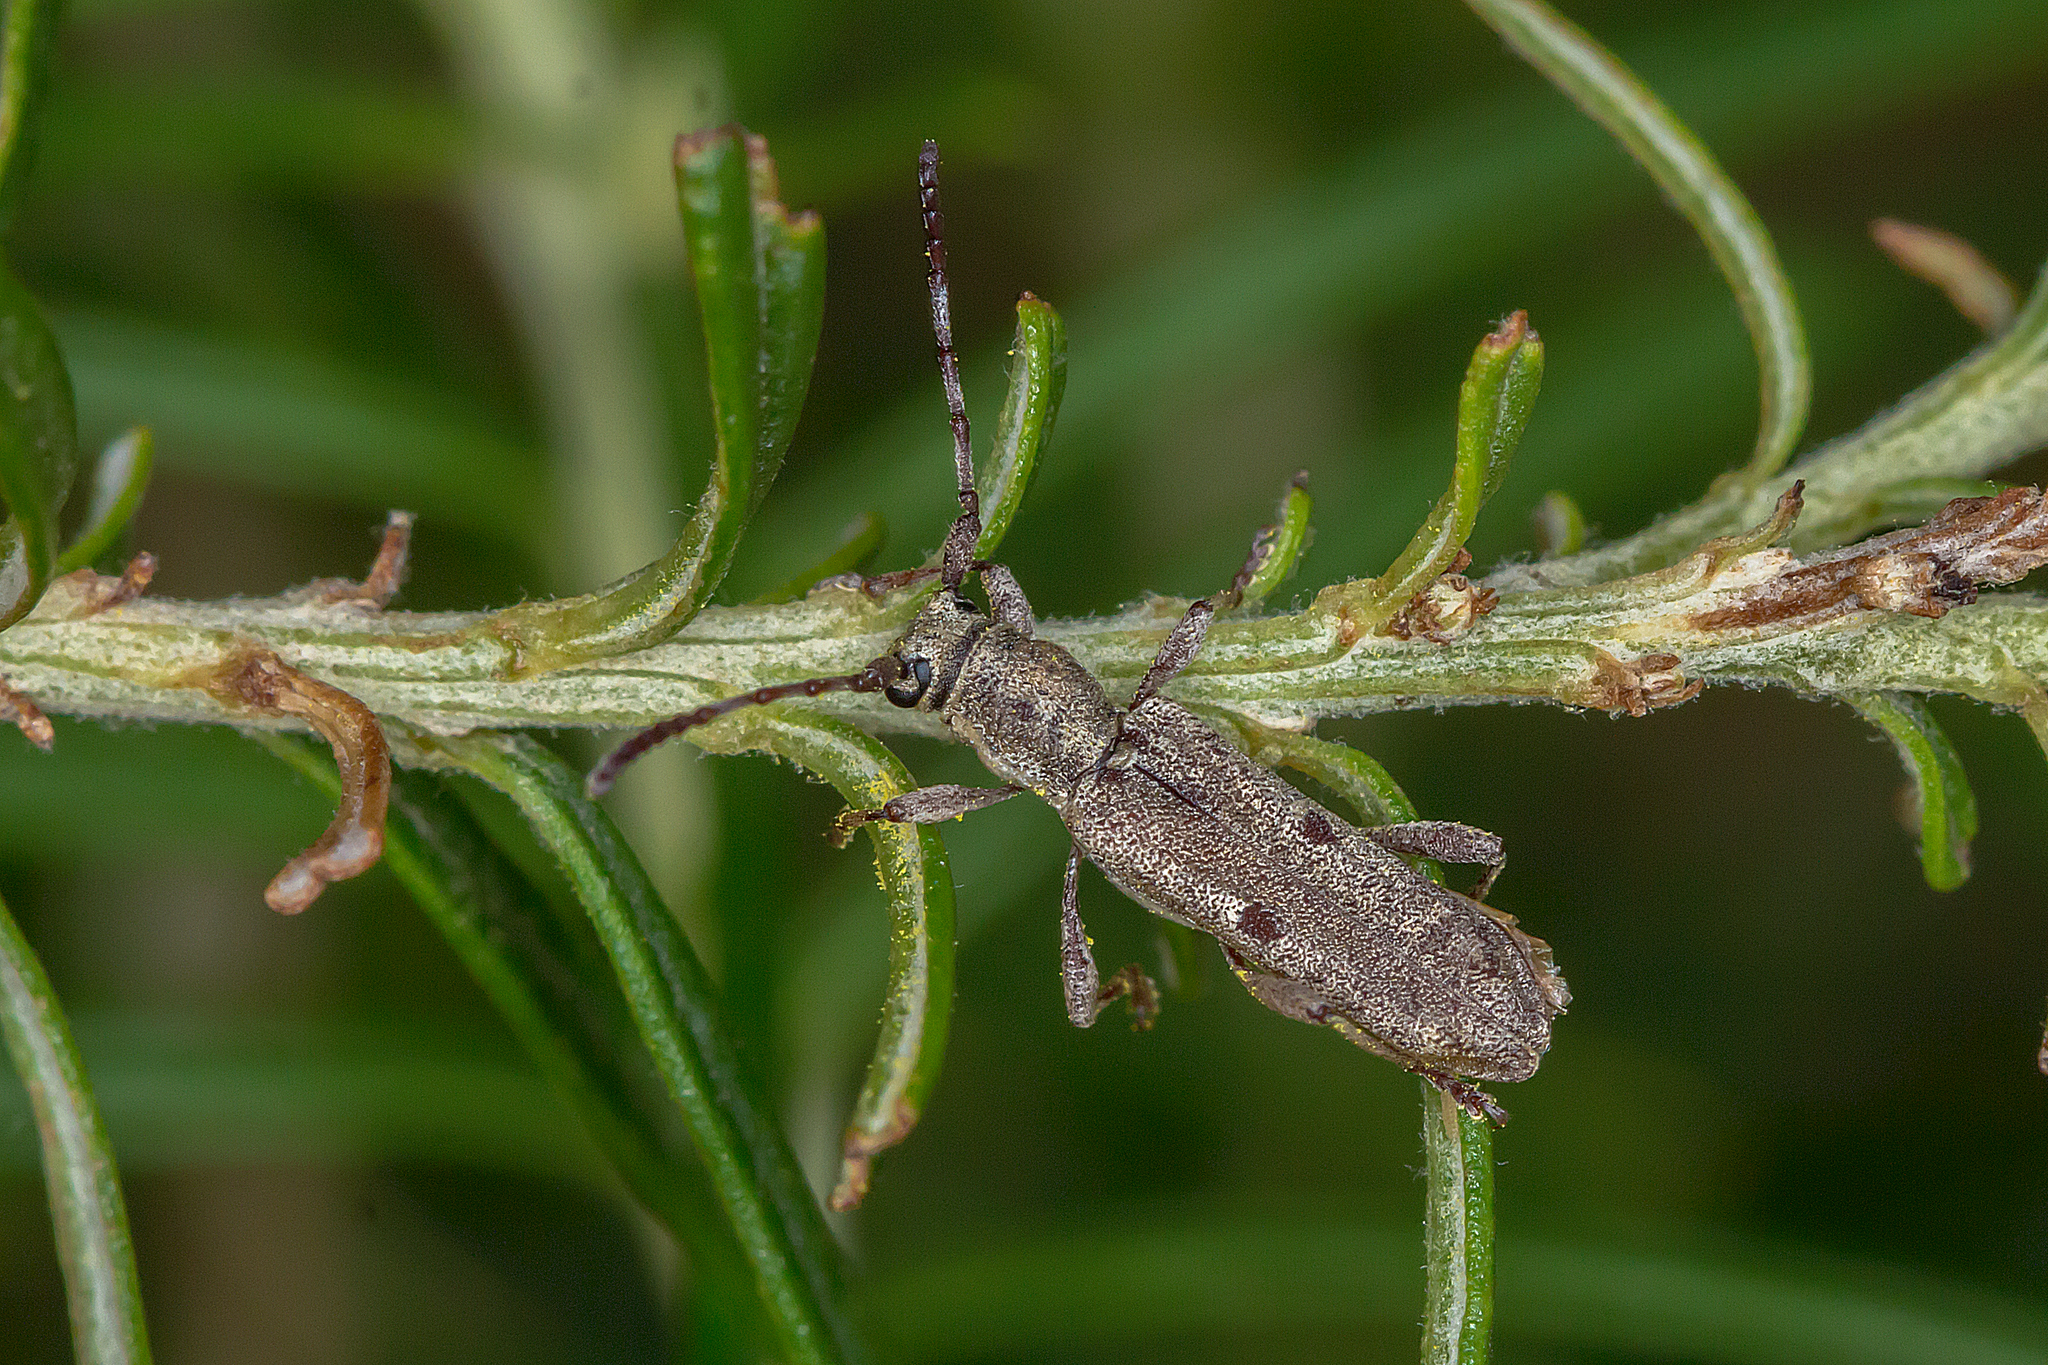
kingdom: Animalia
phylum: Arthropoda
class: Insecta
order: Coleoptera
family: Cerambycidae
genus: Pempsamacra
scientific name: Pempsamacra tillides
